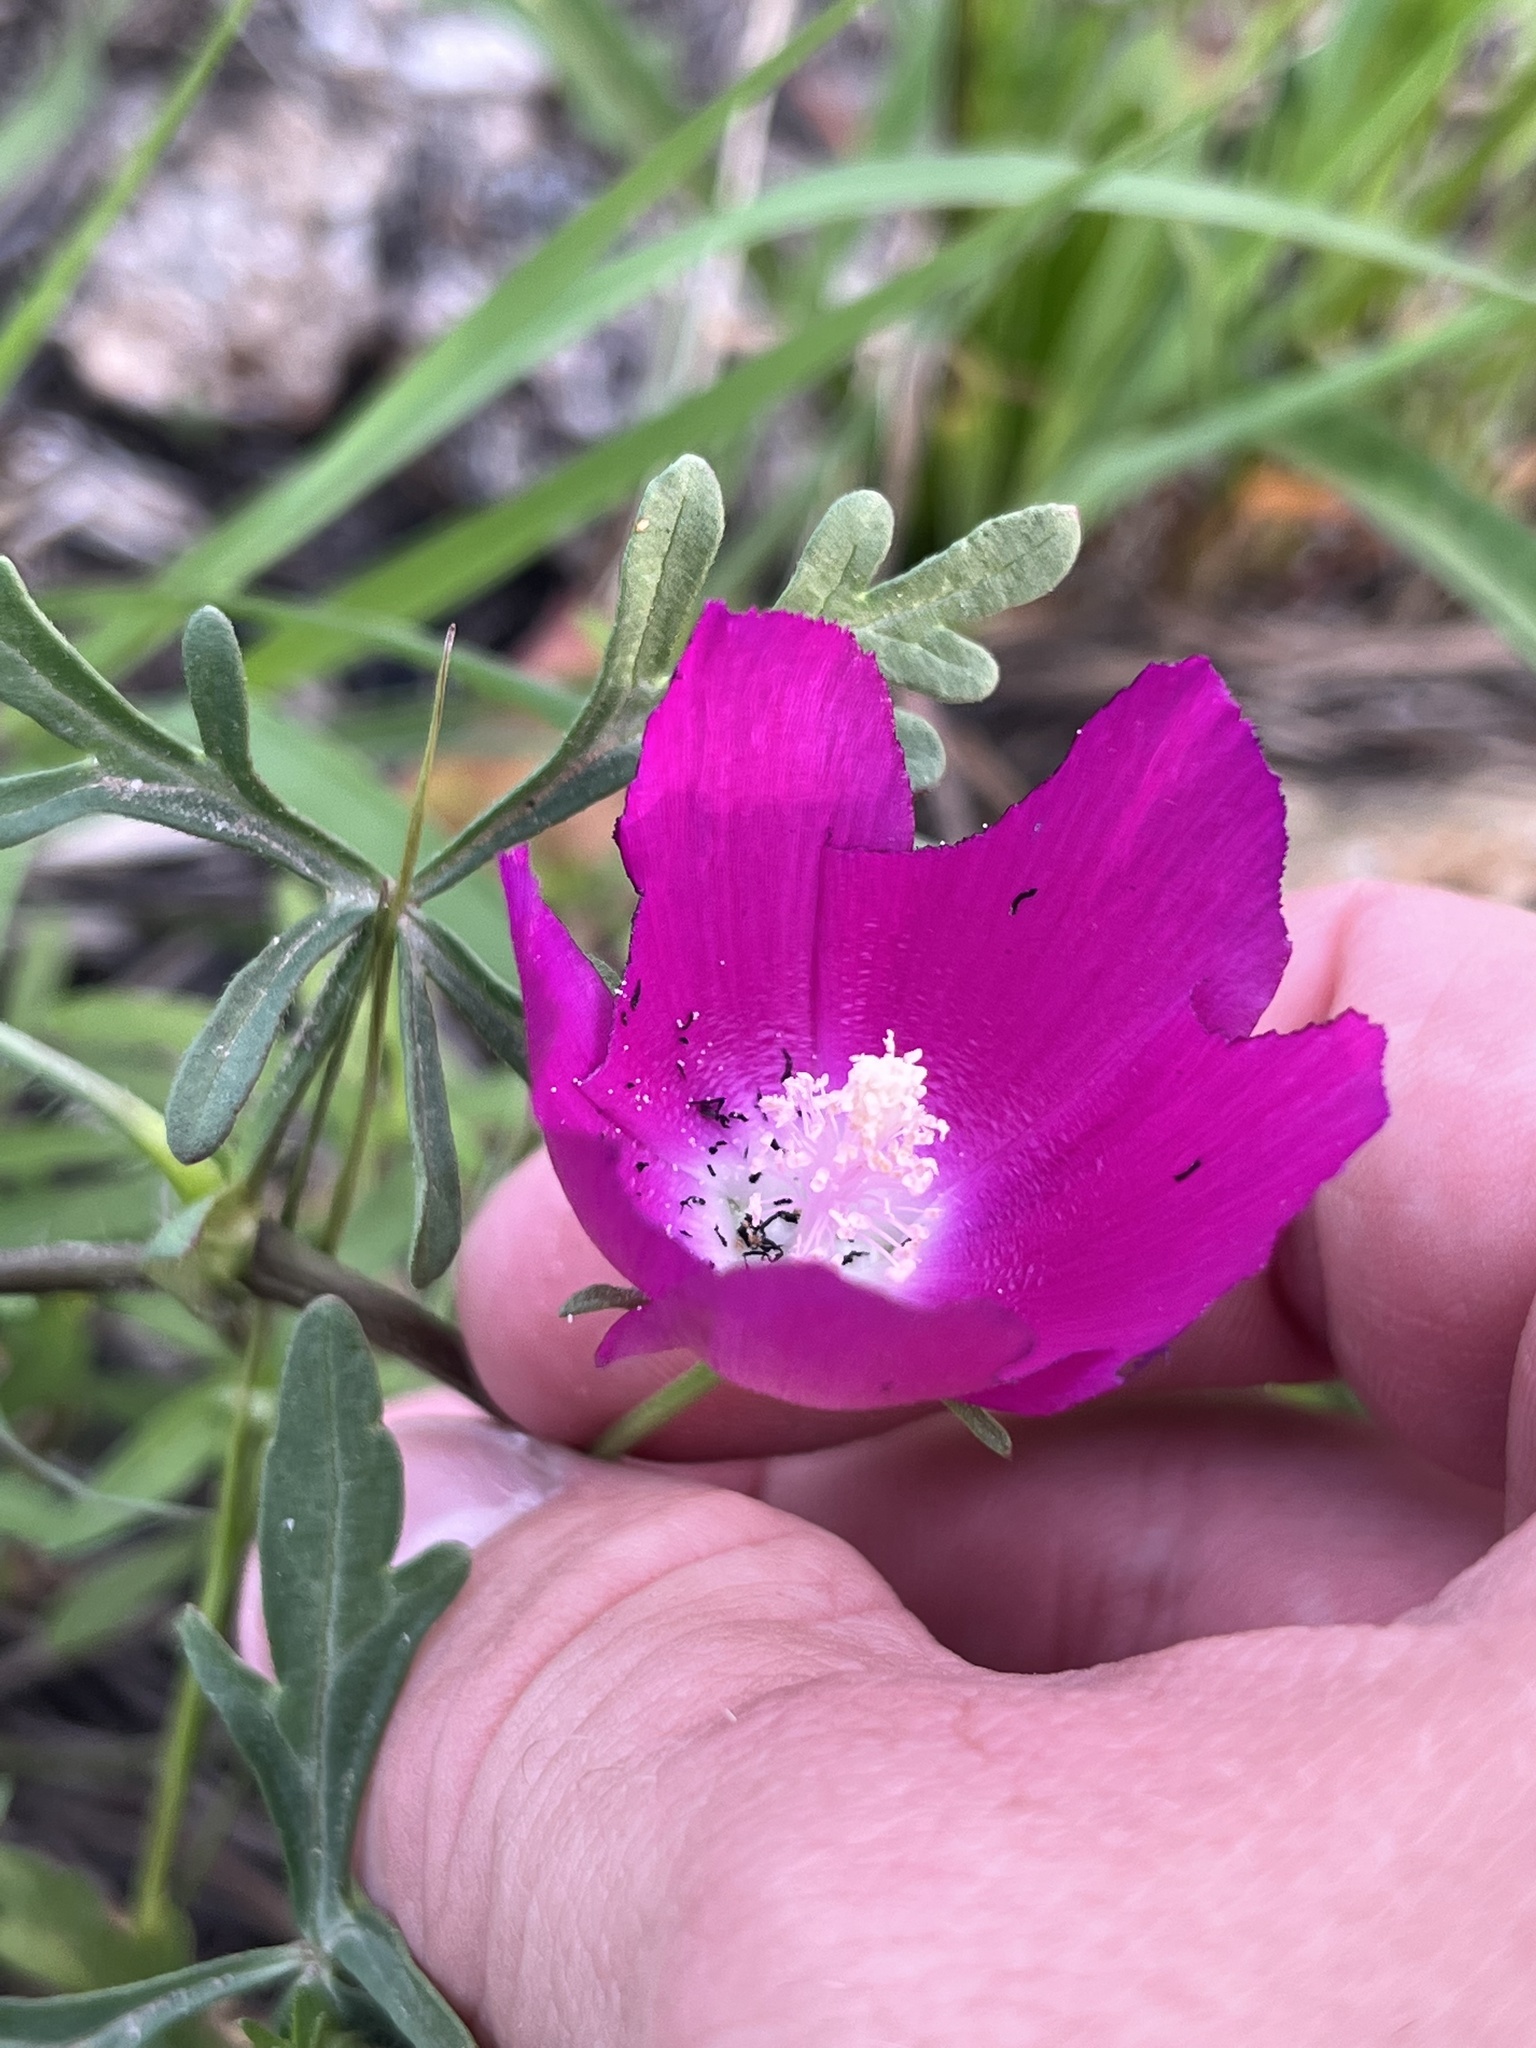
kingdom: Plantae
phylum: Tracheophyta
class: Magnoliopsida
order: Malvales
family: Malvaceae
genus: Callirhoe
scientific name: Callirhoe involucrata
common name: Purple poppy-mallow
